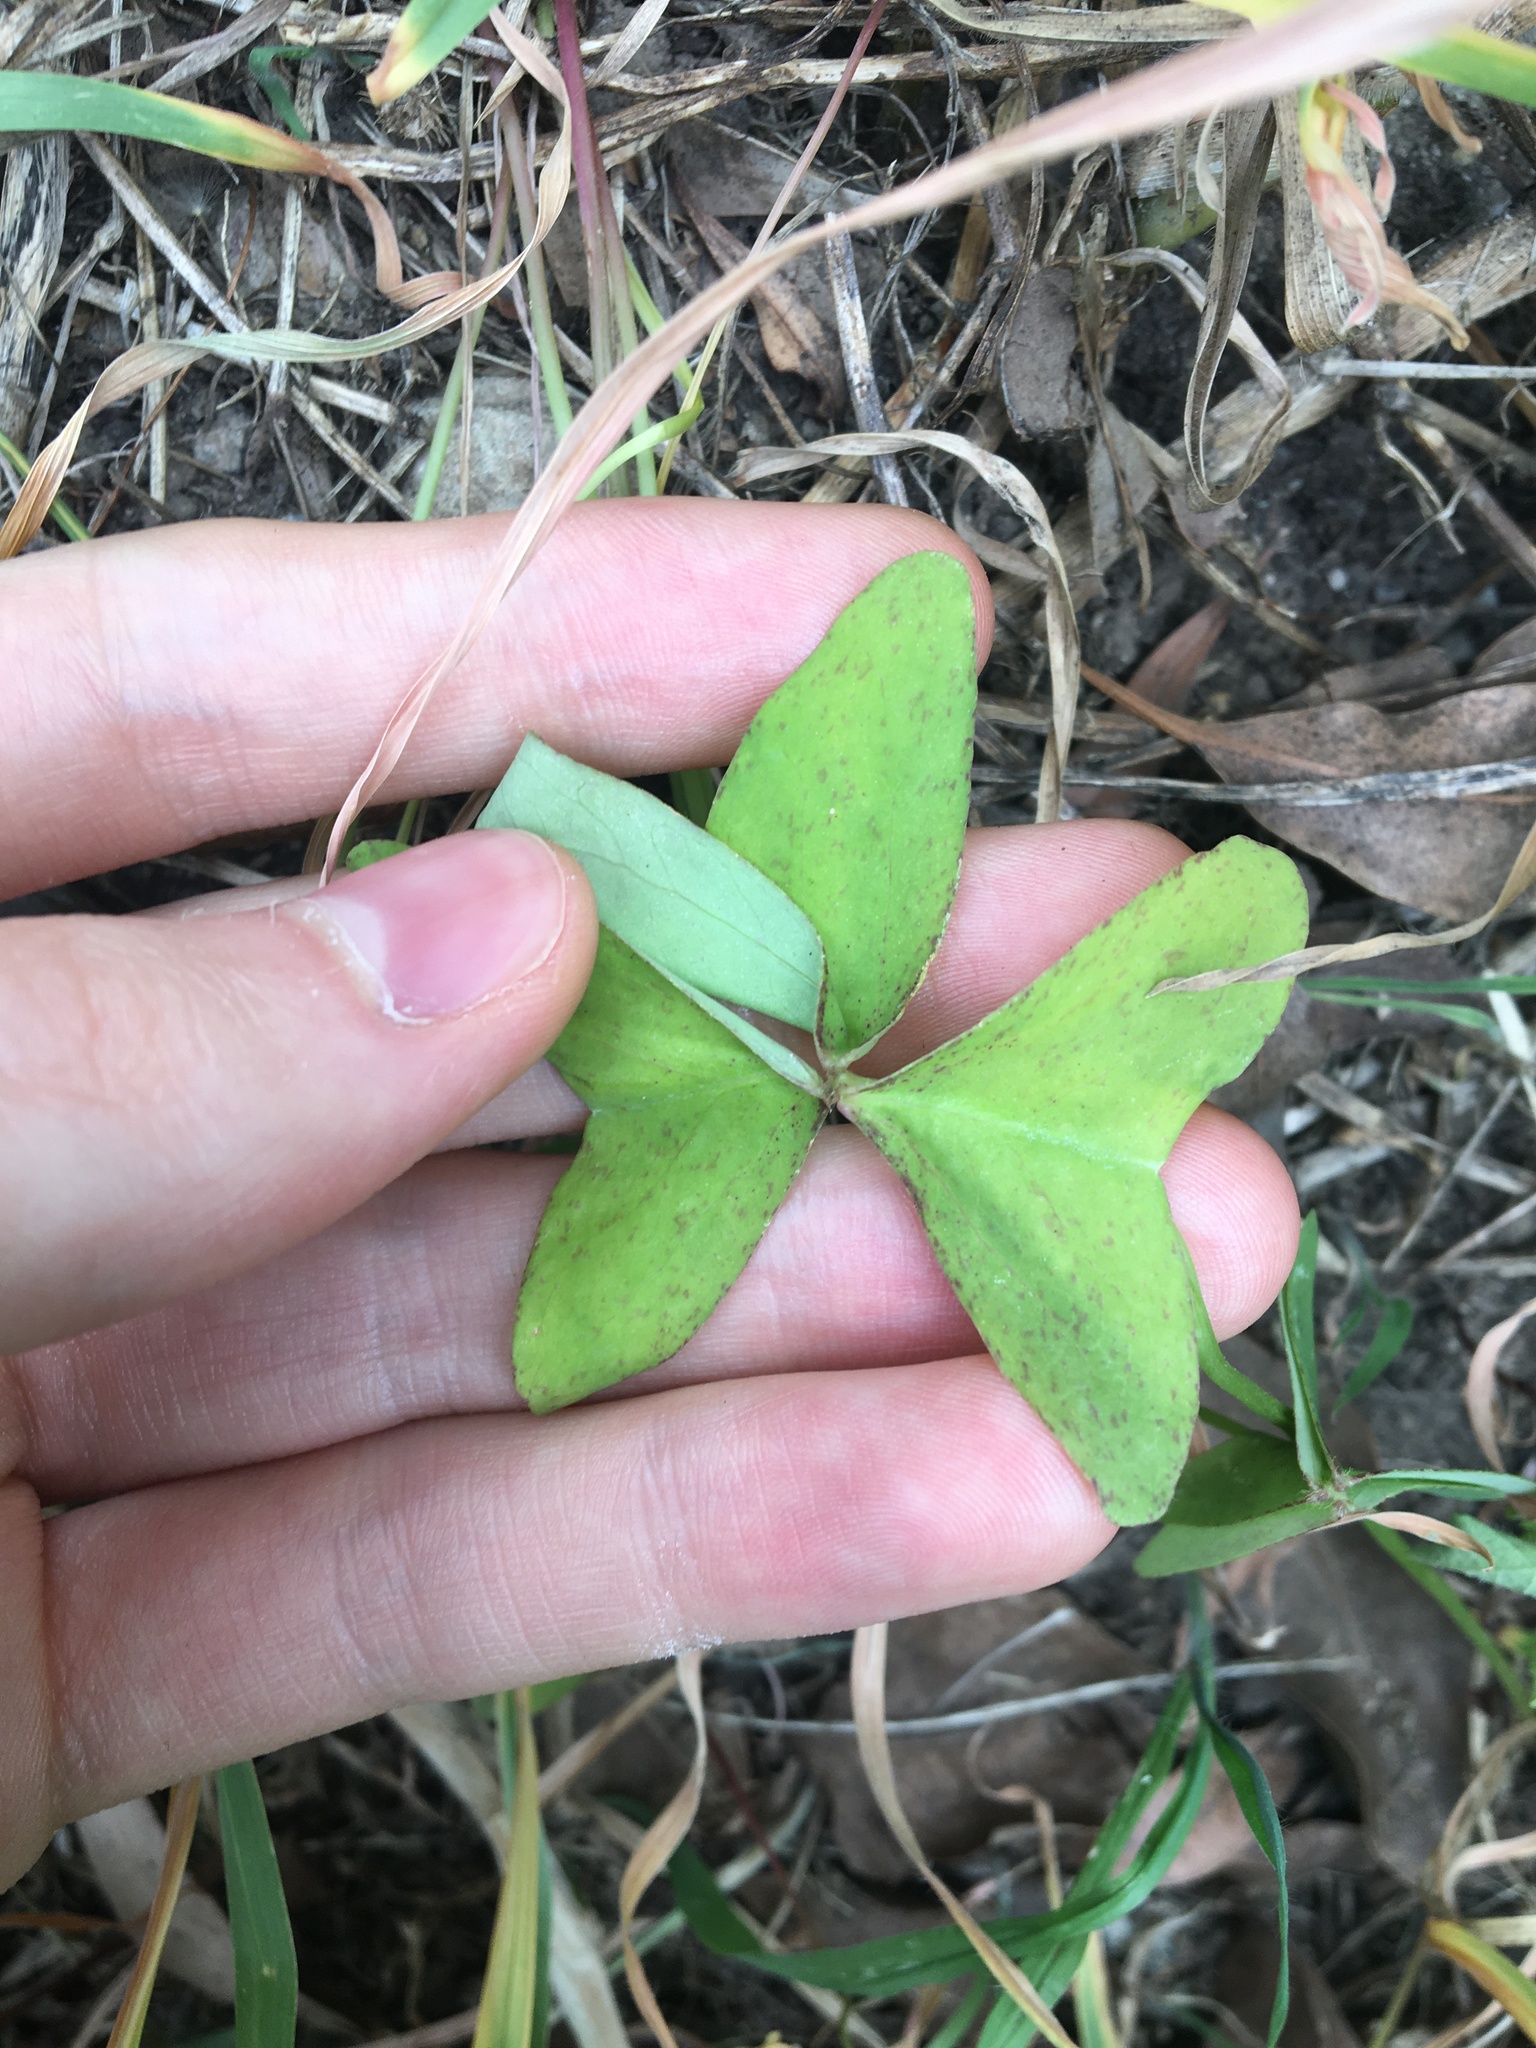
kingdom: Plantae
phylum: Tracheophyta
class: Magnoliopsida
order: Oxalidales
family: Oxalidaceae
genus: Oxalis
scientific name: Oxalis latifolia
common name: Garden pink-sorrel
